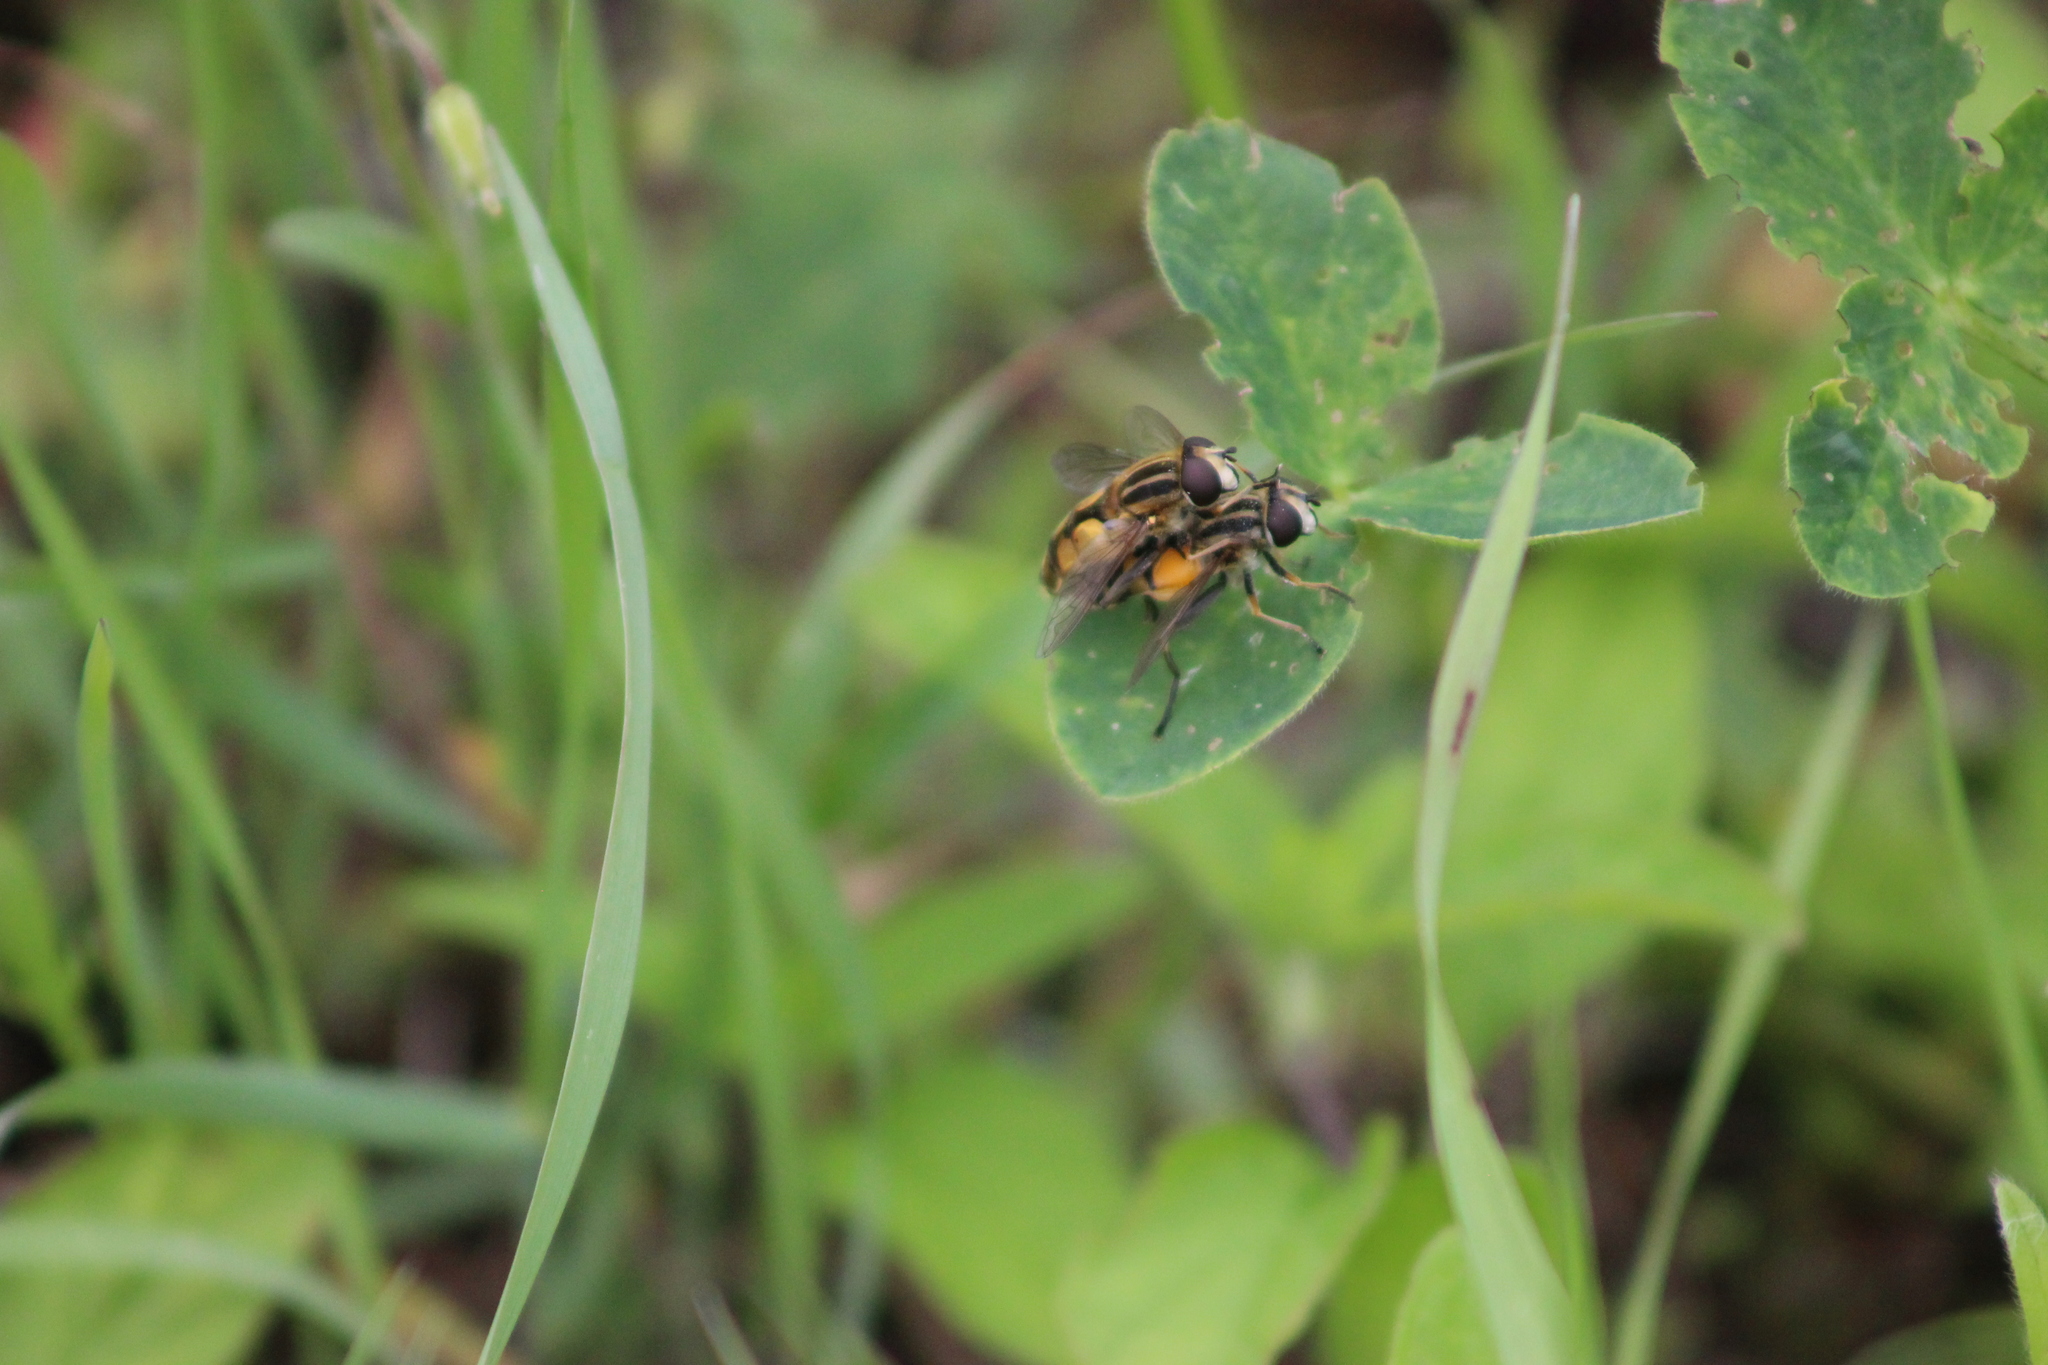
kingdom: Animalia
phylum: Arthropoda
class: Insecta
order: Diptera
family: Syrphidae
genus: Helophilus
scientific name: Helophilus hybridus
